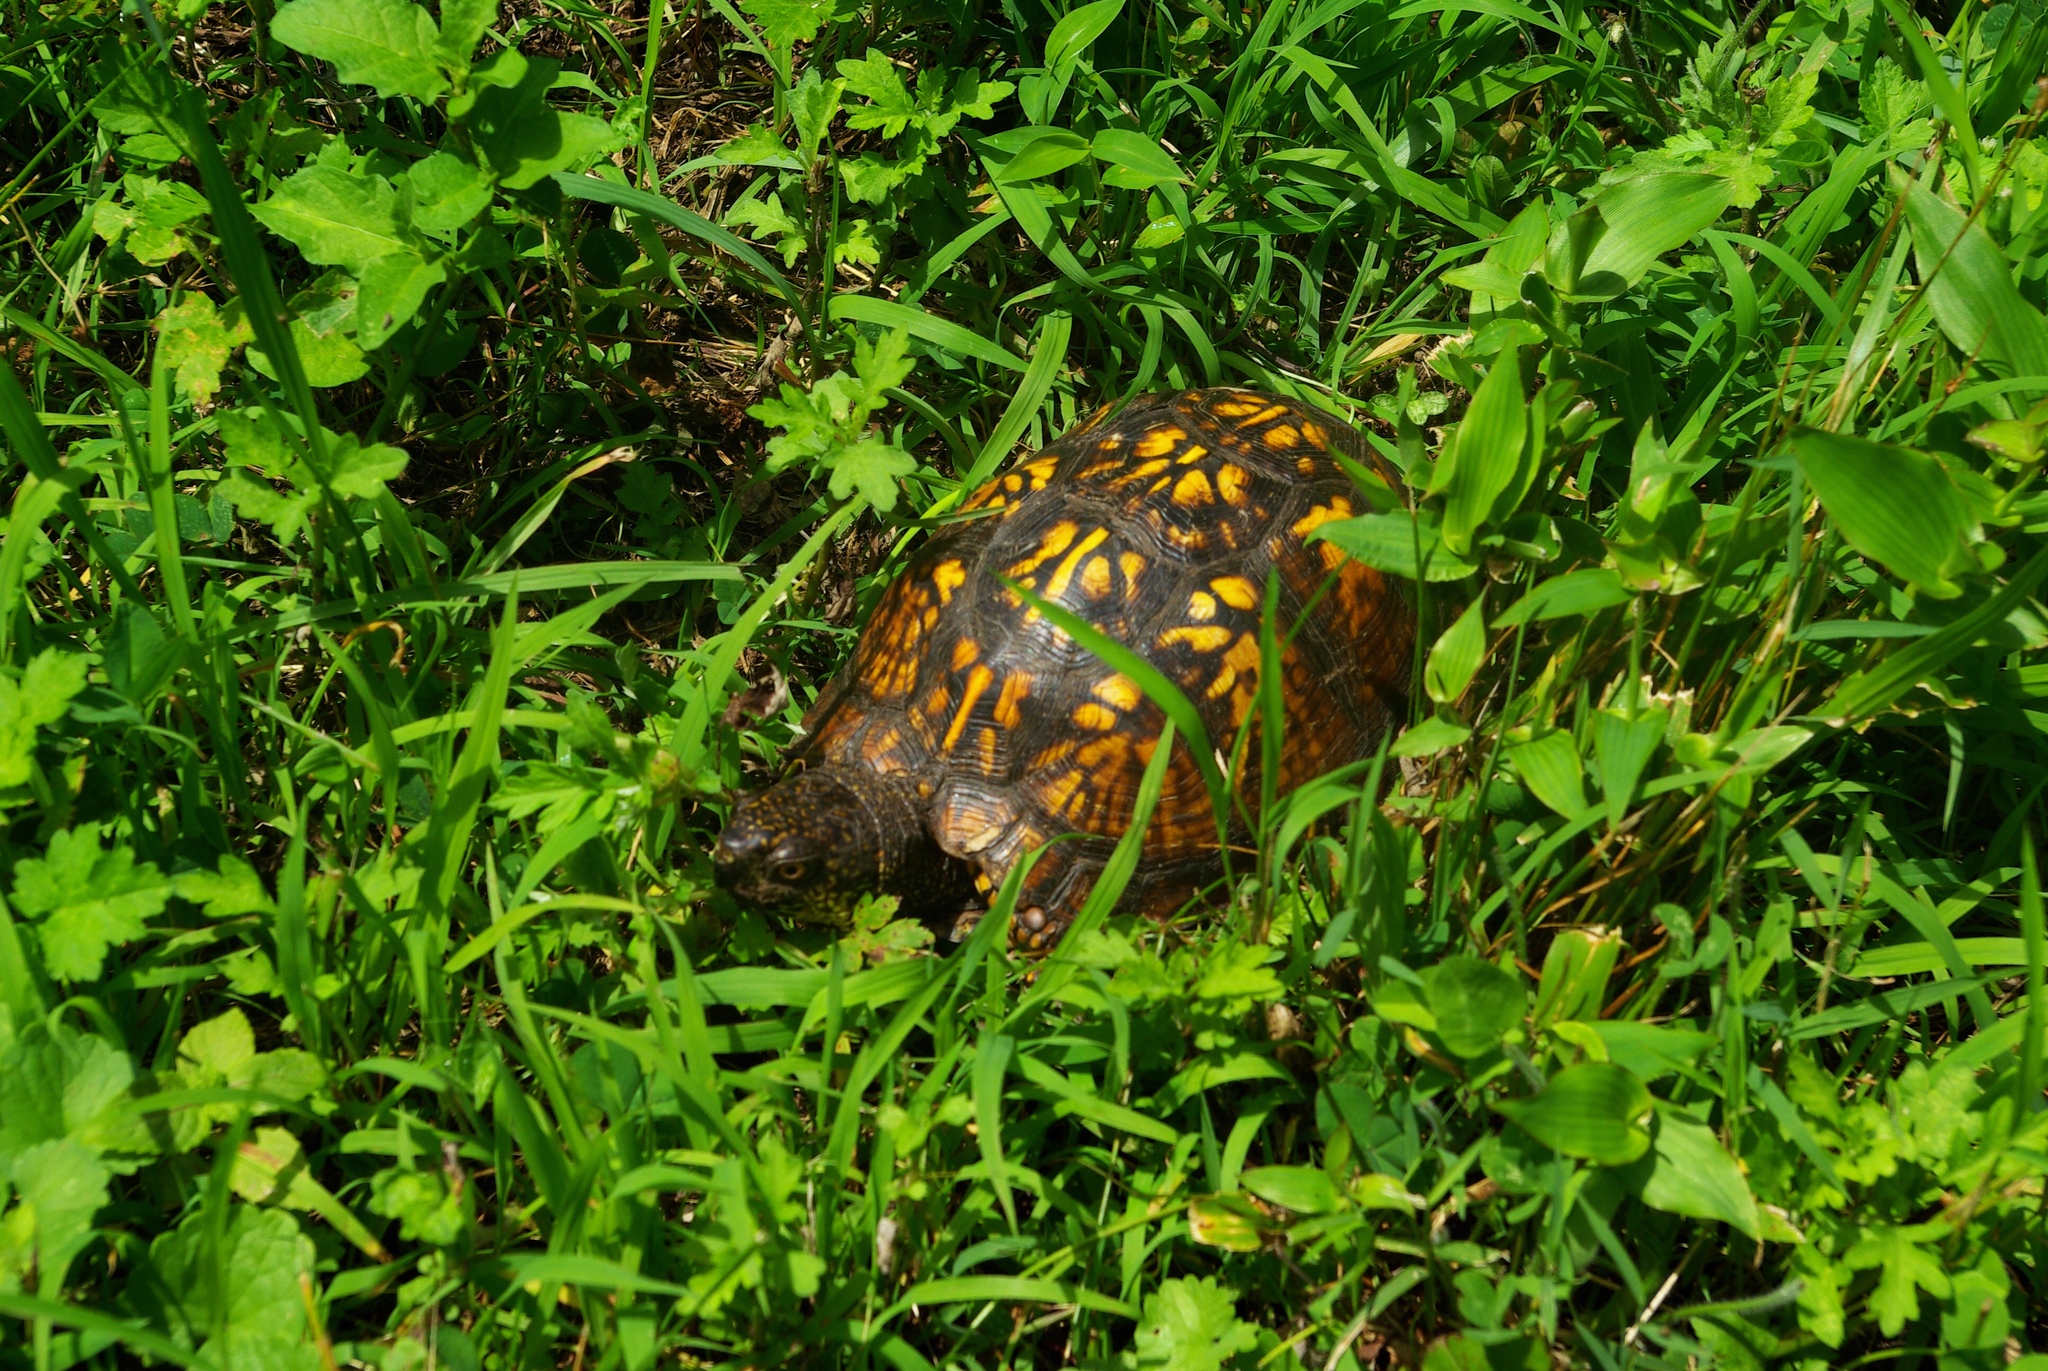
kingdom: Animalia
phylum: Chordata
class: Testudines
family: Emydidae
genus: Terrapene
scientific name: Terrapene carolina
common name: Common box turtle
